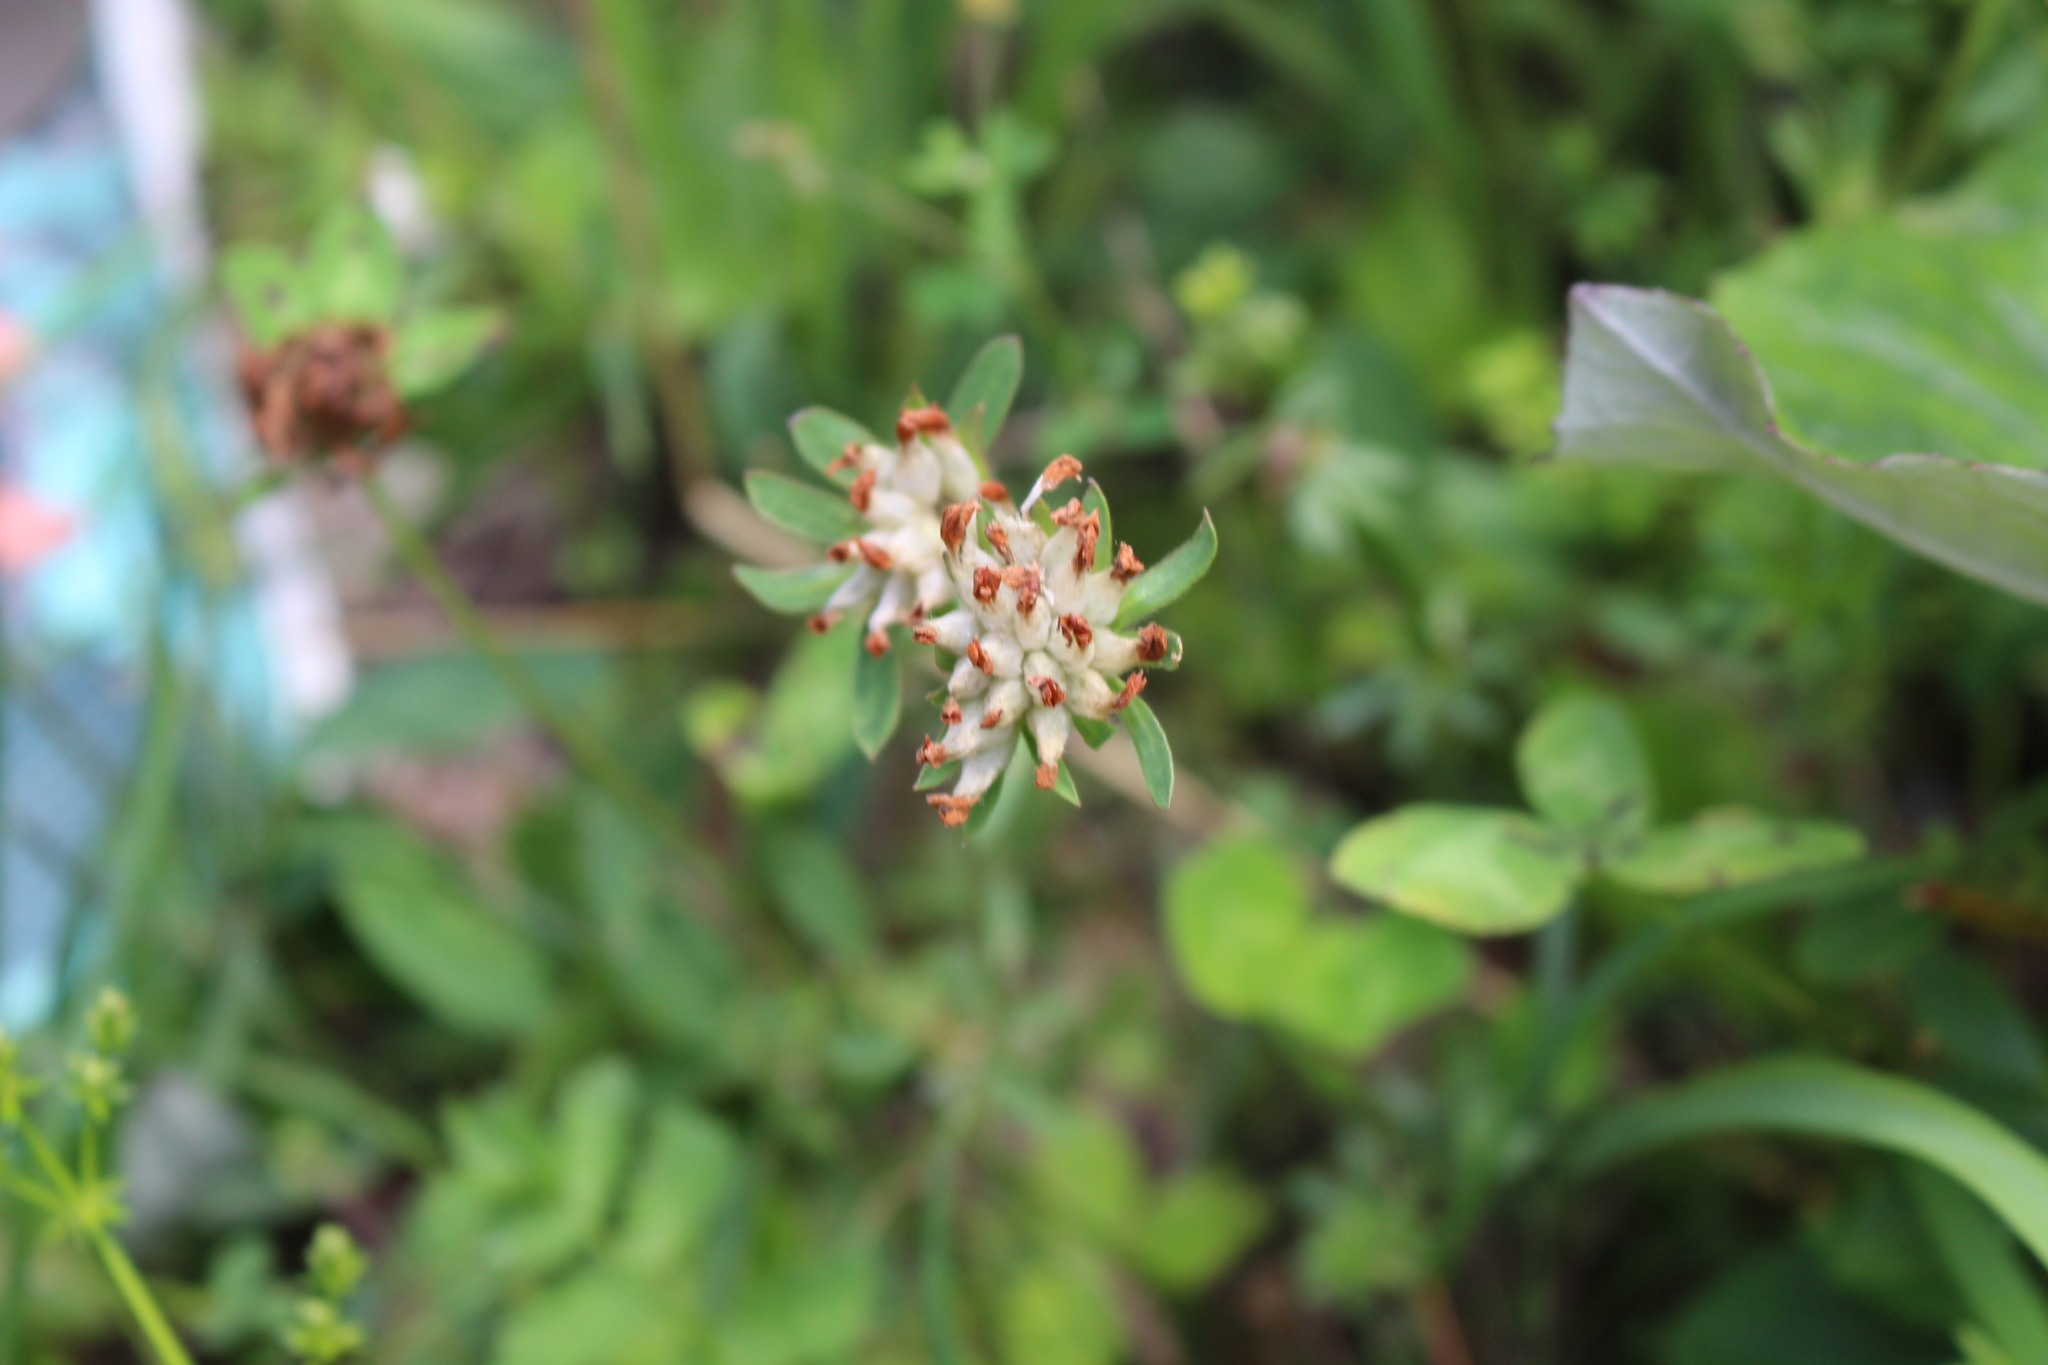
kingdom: Plantae
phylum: Tracheophyta
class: Magnoliopsida
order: Fabales
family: Fabaceae
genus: Anthyllis
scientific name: Anthyllis vulneraria
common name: Kidney vetch
